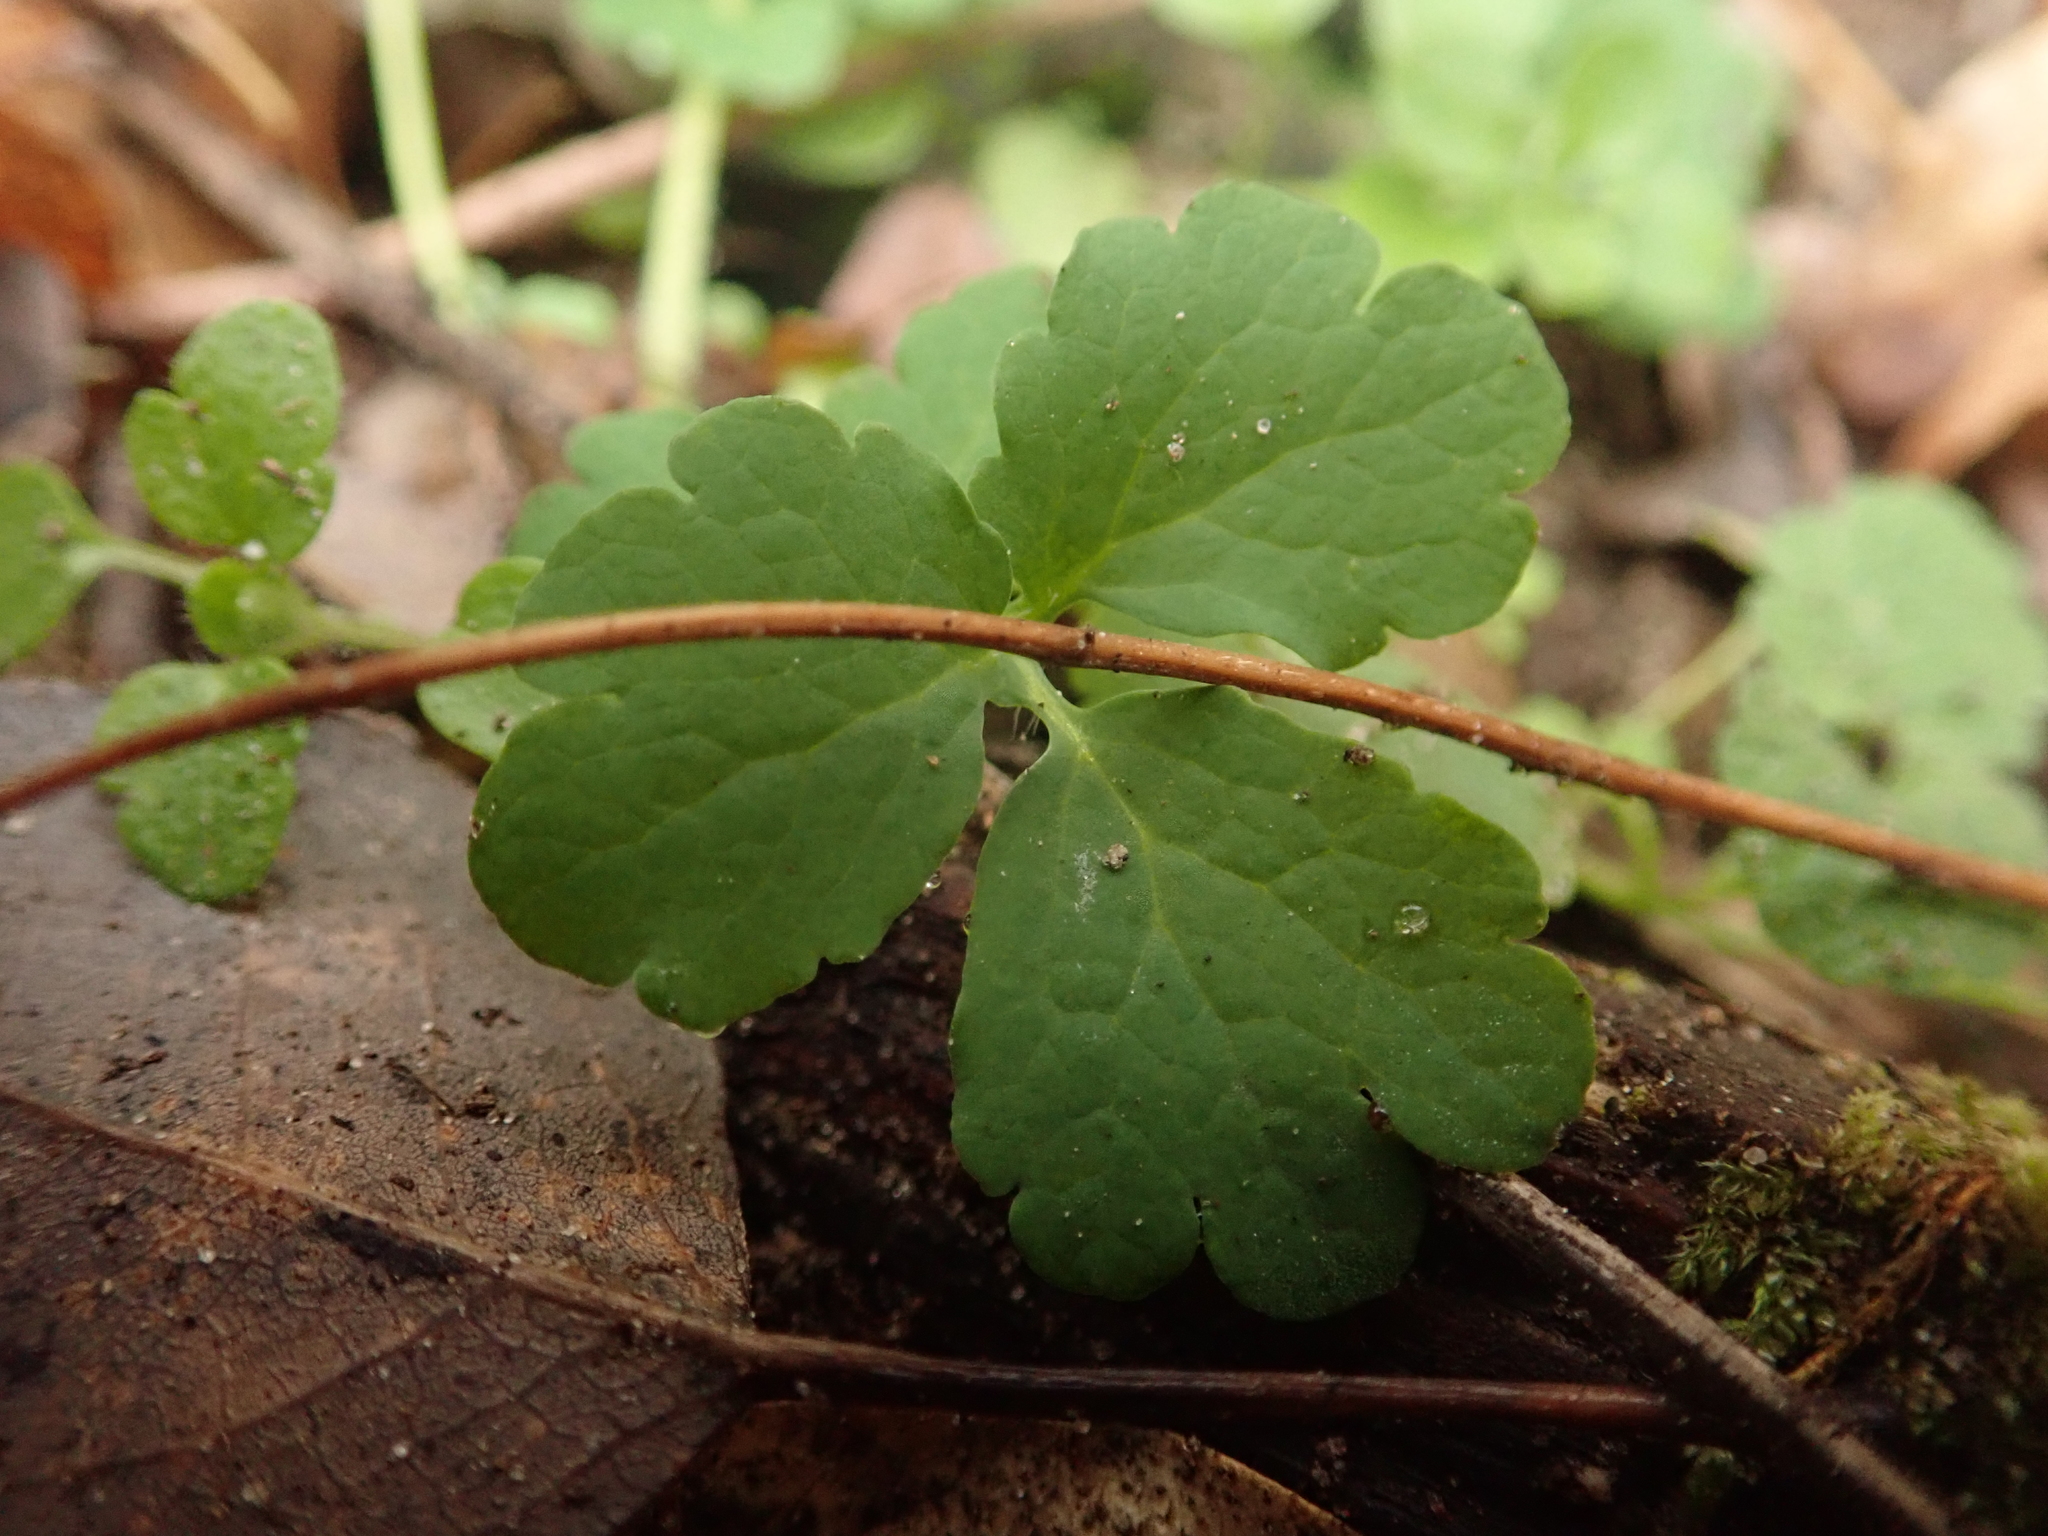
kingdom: Plantae
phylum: Tracheophyta
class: Magnoliopsida
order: Ranunculales
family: Papaveraceae
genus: Chelidonium
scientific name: Chelidonium majus
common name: Greater celandine
